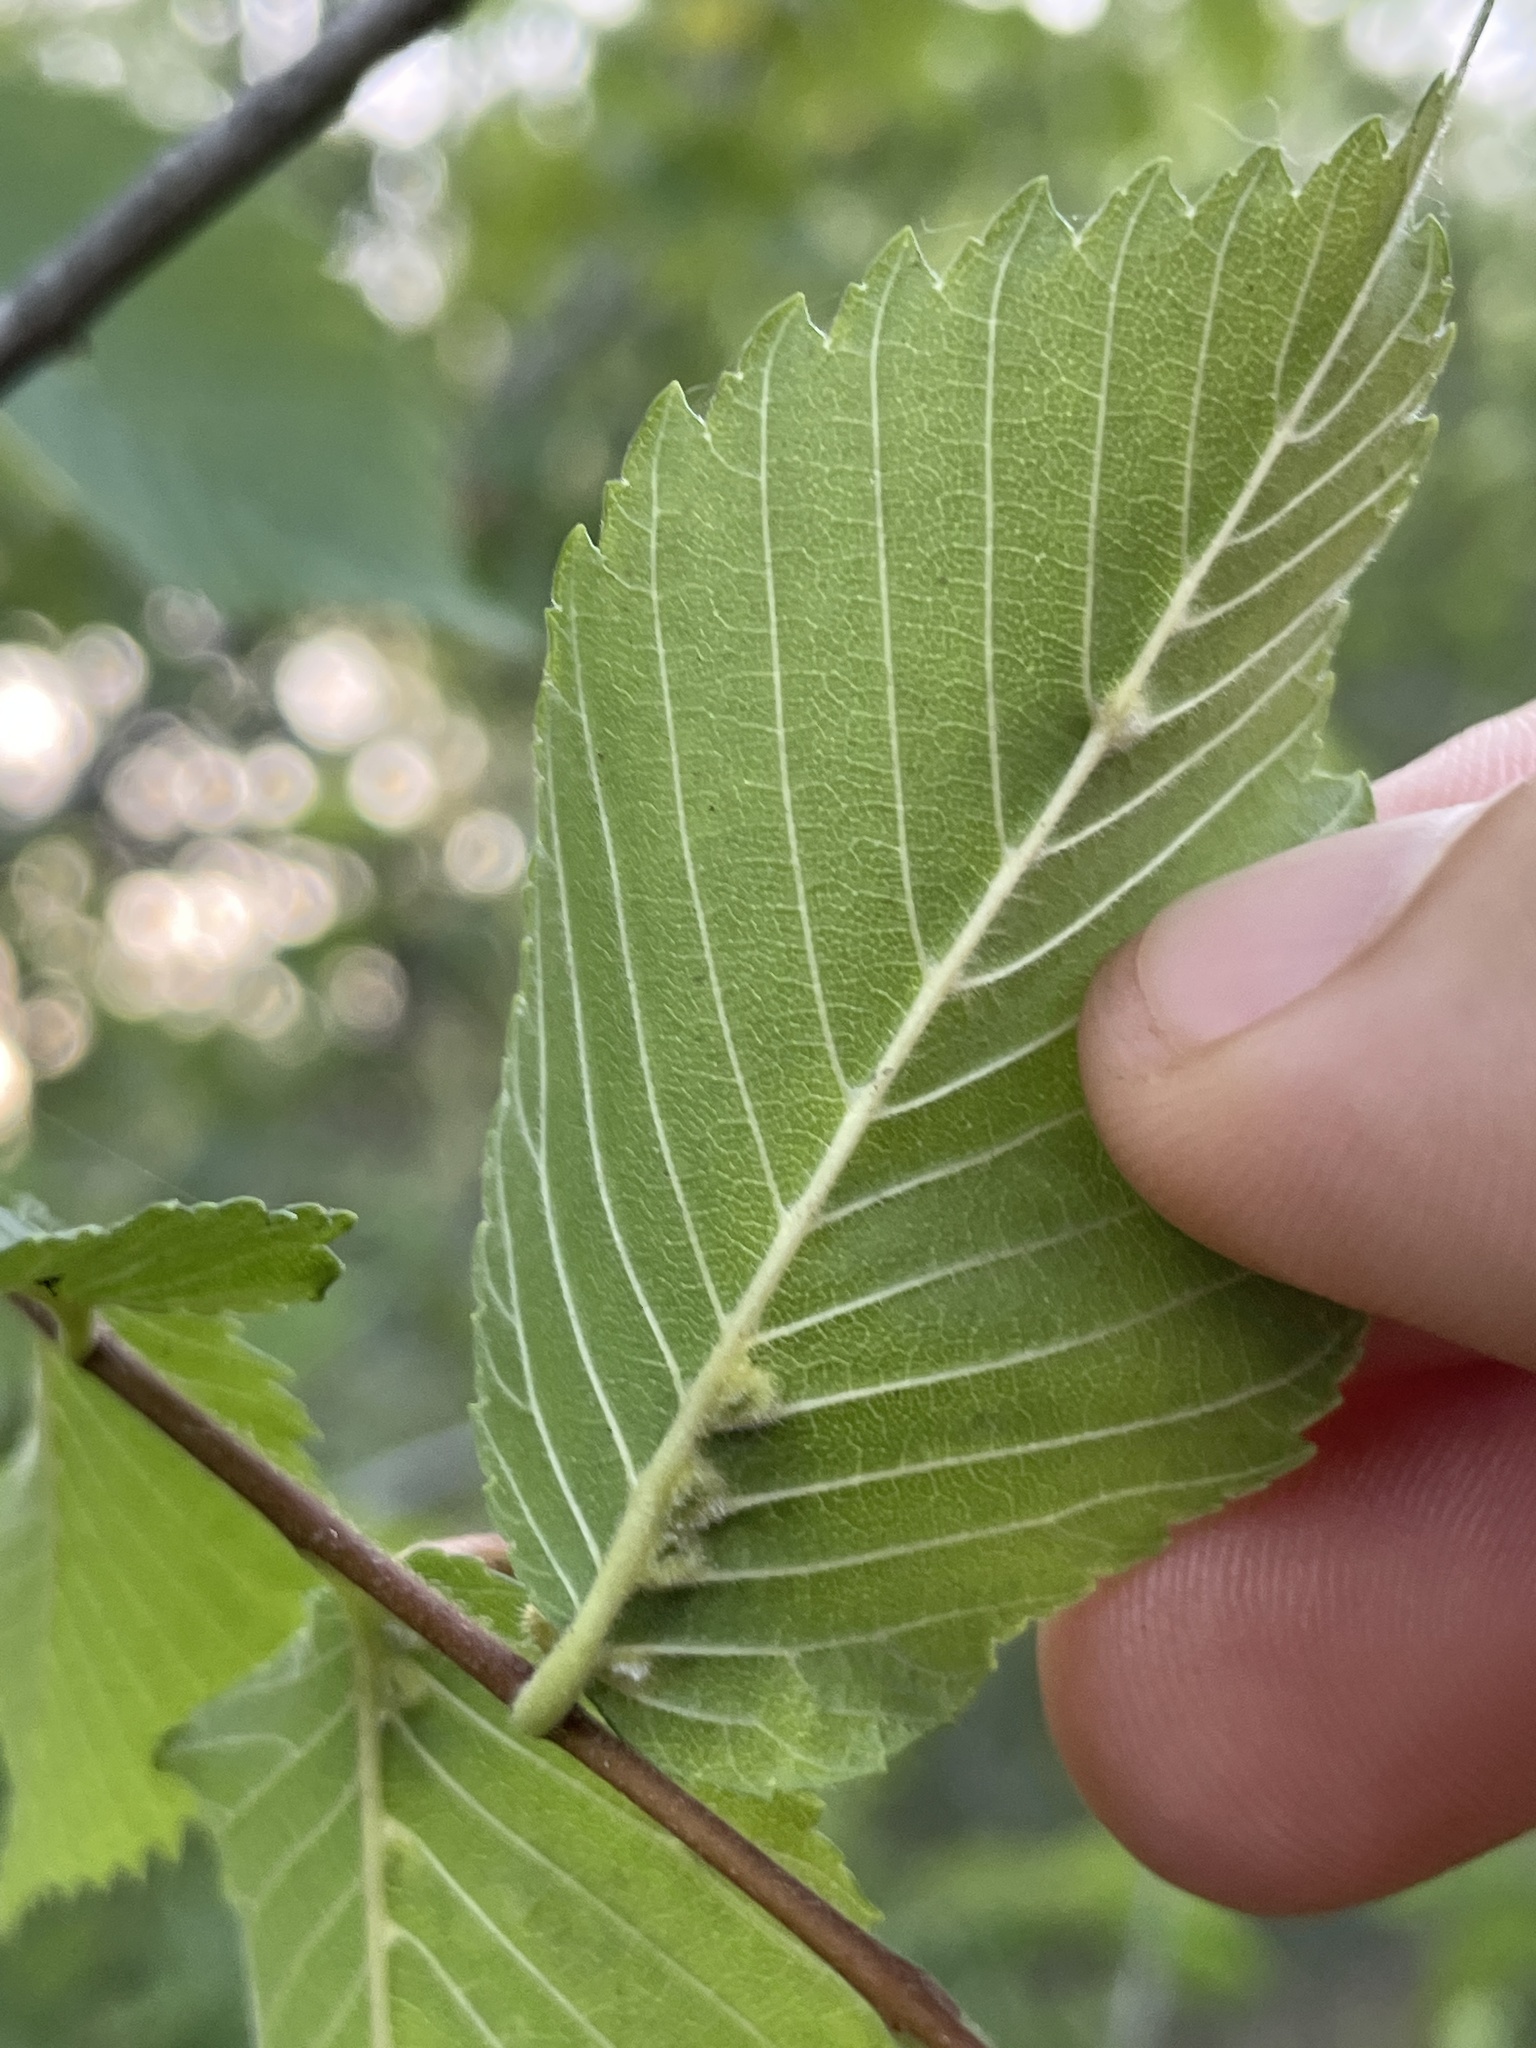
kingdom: Animalia
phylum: Arthropoda
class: Arachnida
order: Trombidiformes
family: Eriophyidae
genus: Aceria
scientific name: Aceria
